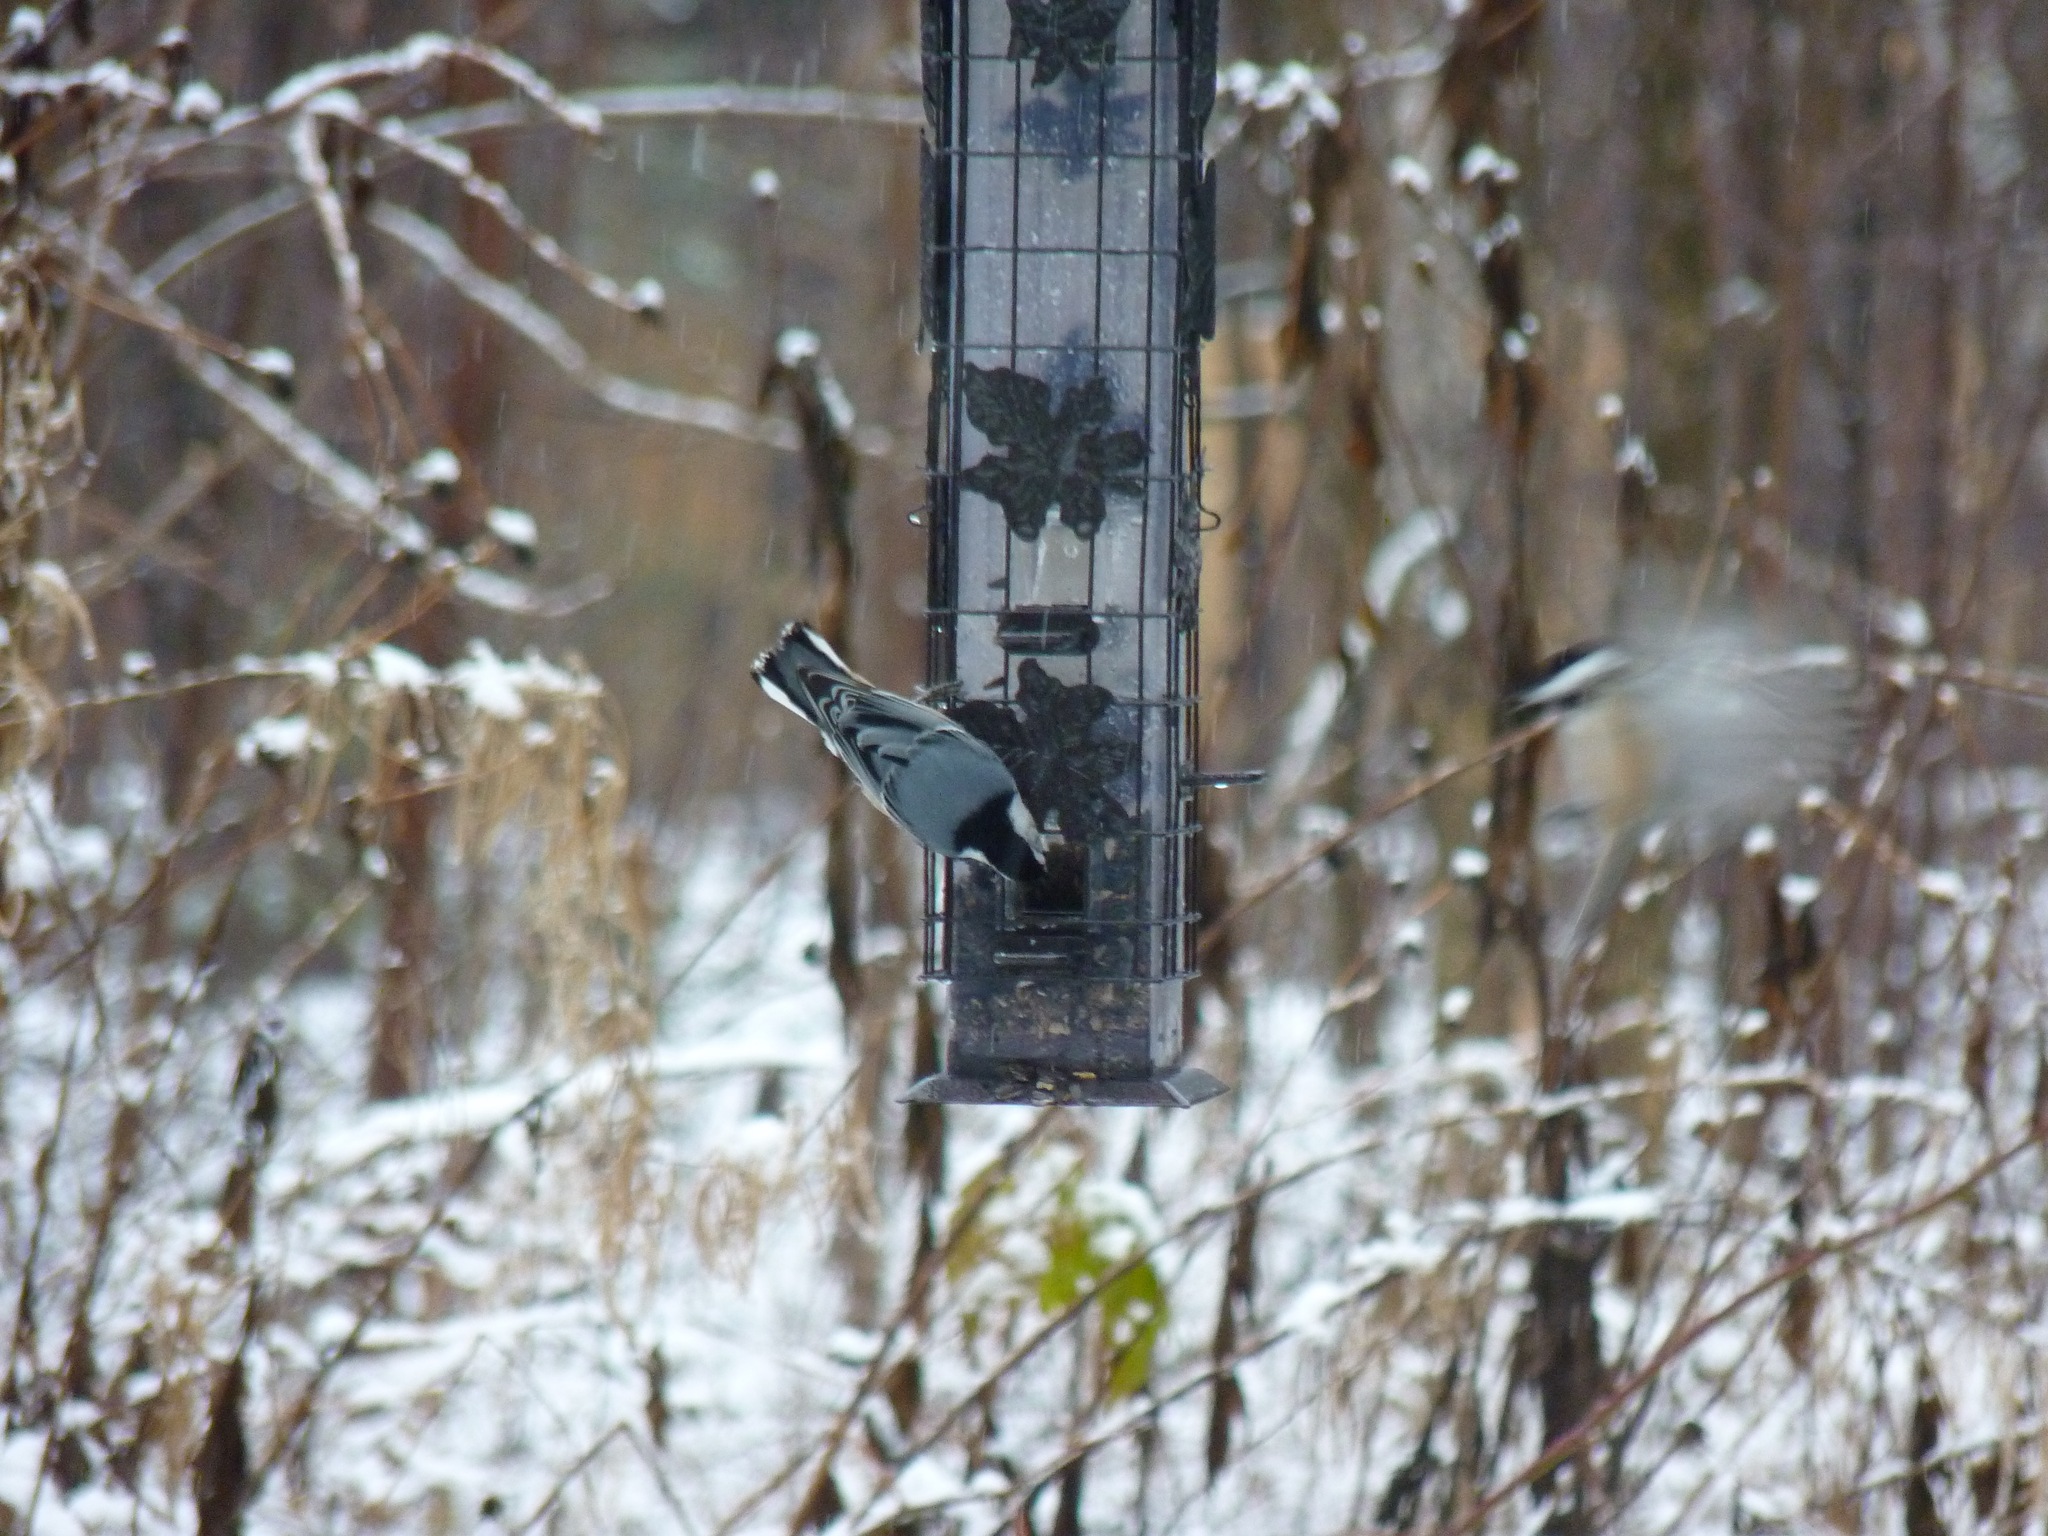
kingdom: Animalia
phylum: Chordata
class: Aves
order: Passeriformes
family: Sittidae
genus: Sitta
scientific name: Sitta carolinensis
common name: White-breasted nuthatch
